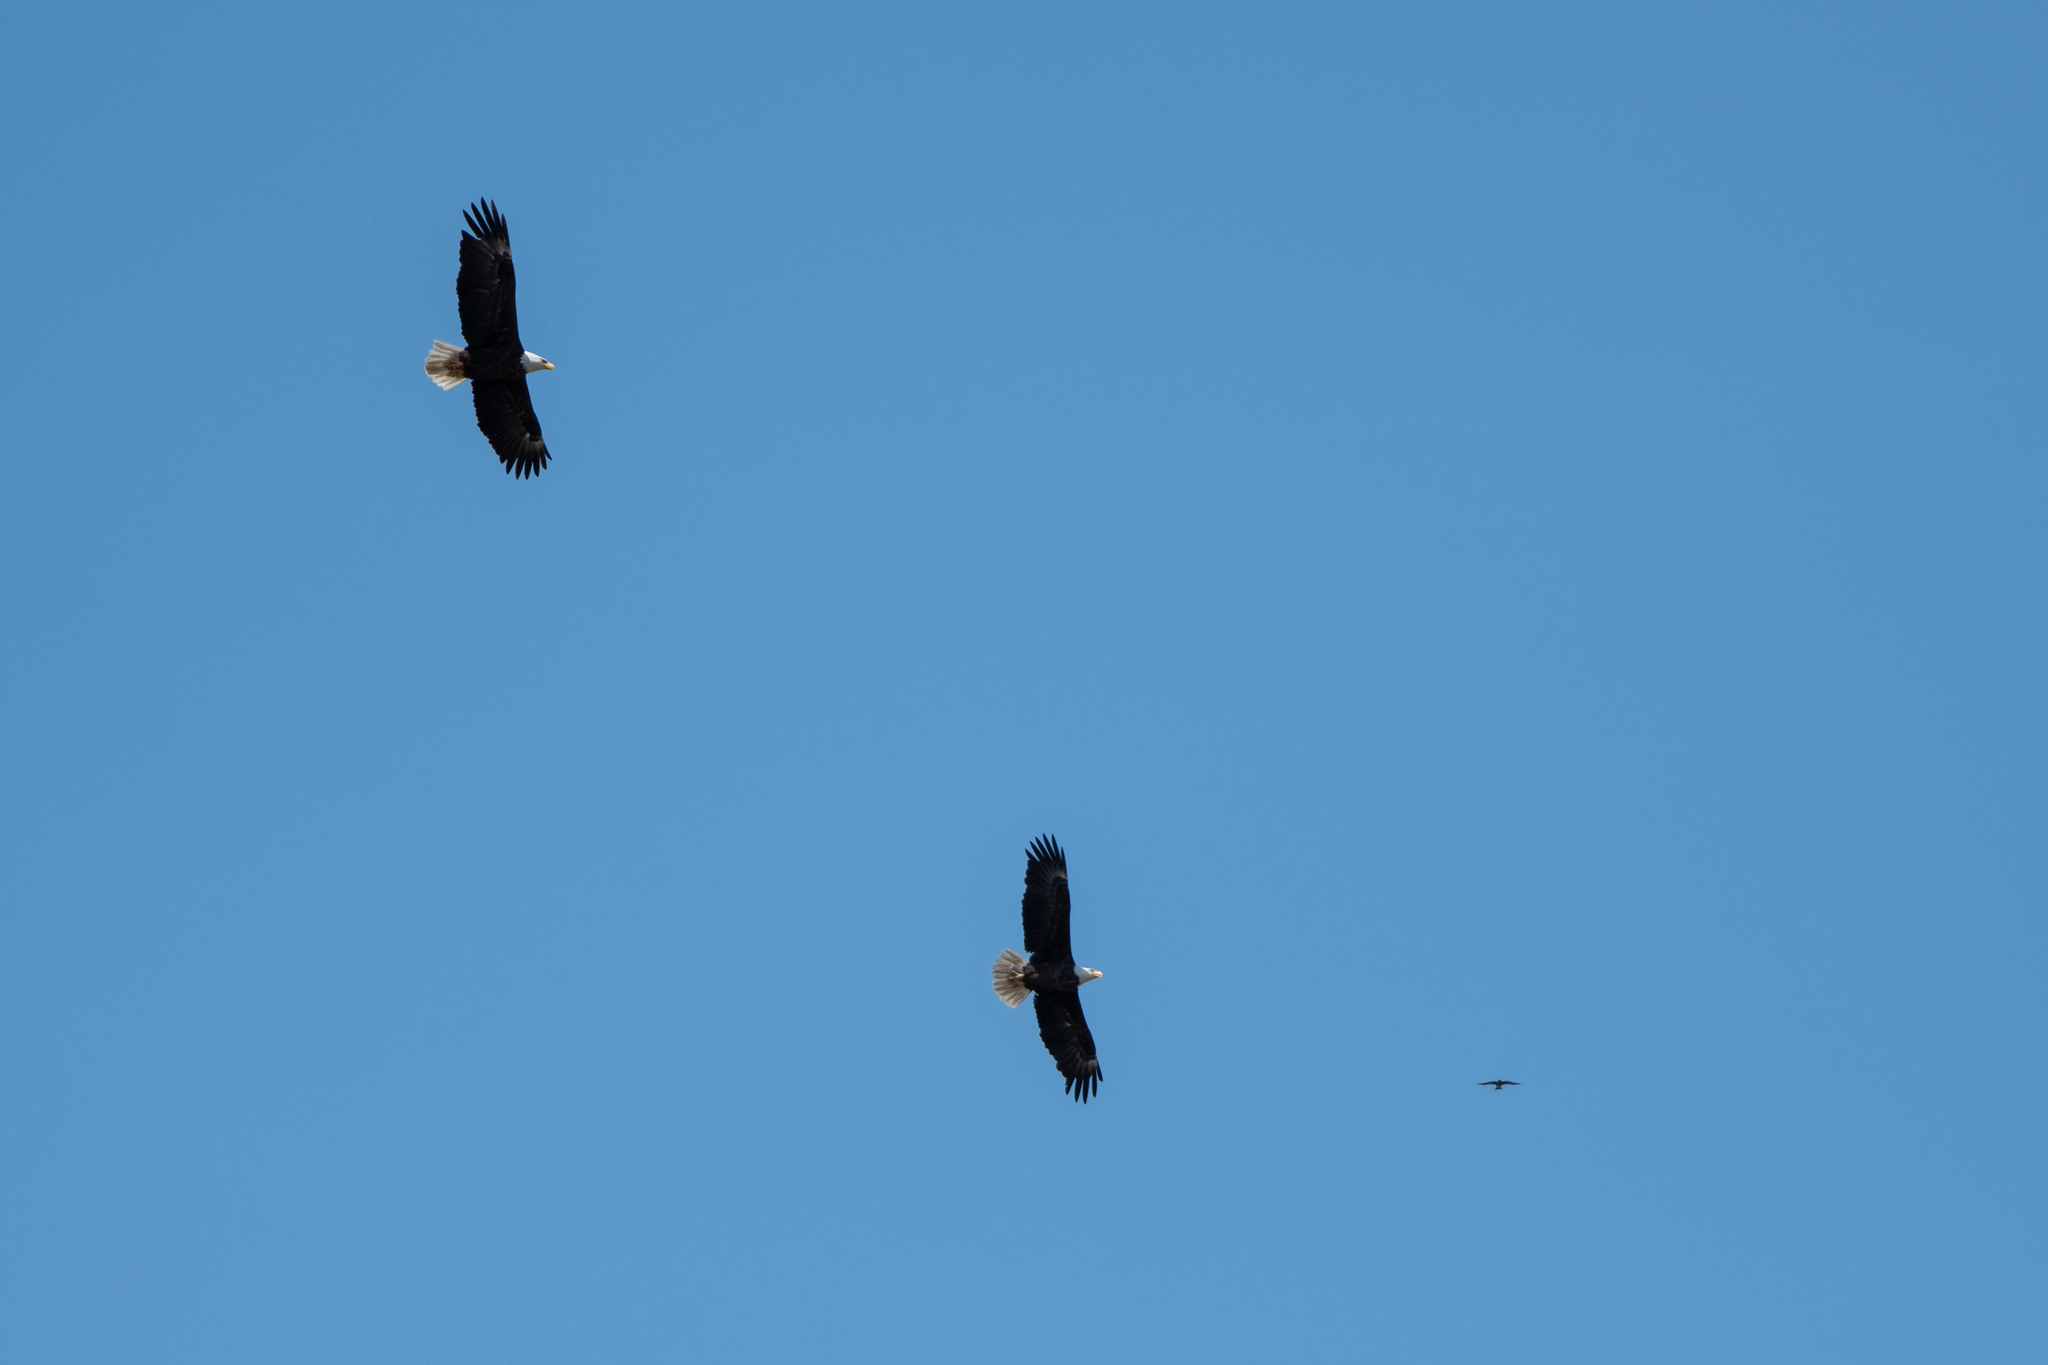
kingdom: Animalia
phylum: Chordata
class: Aves
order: Accipitriformes
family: Accipitridae
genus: Haliaeetus
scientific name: Haliaeetus leucocephalus
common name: Bald eagle
